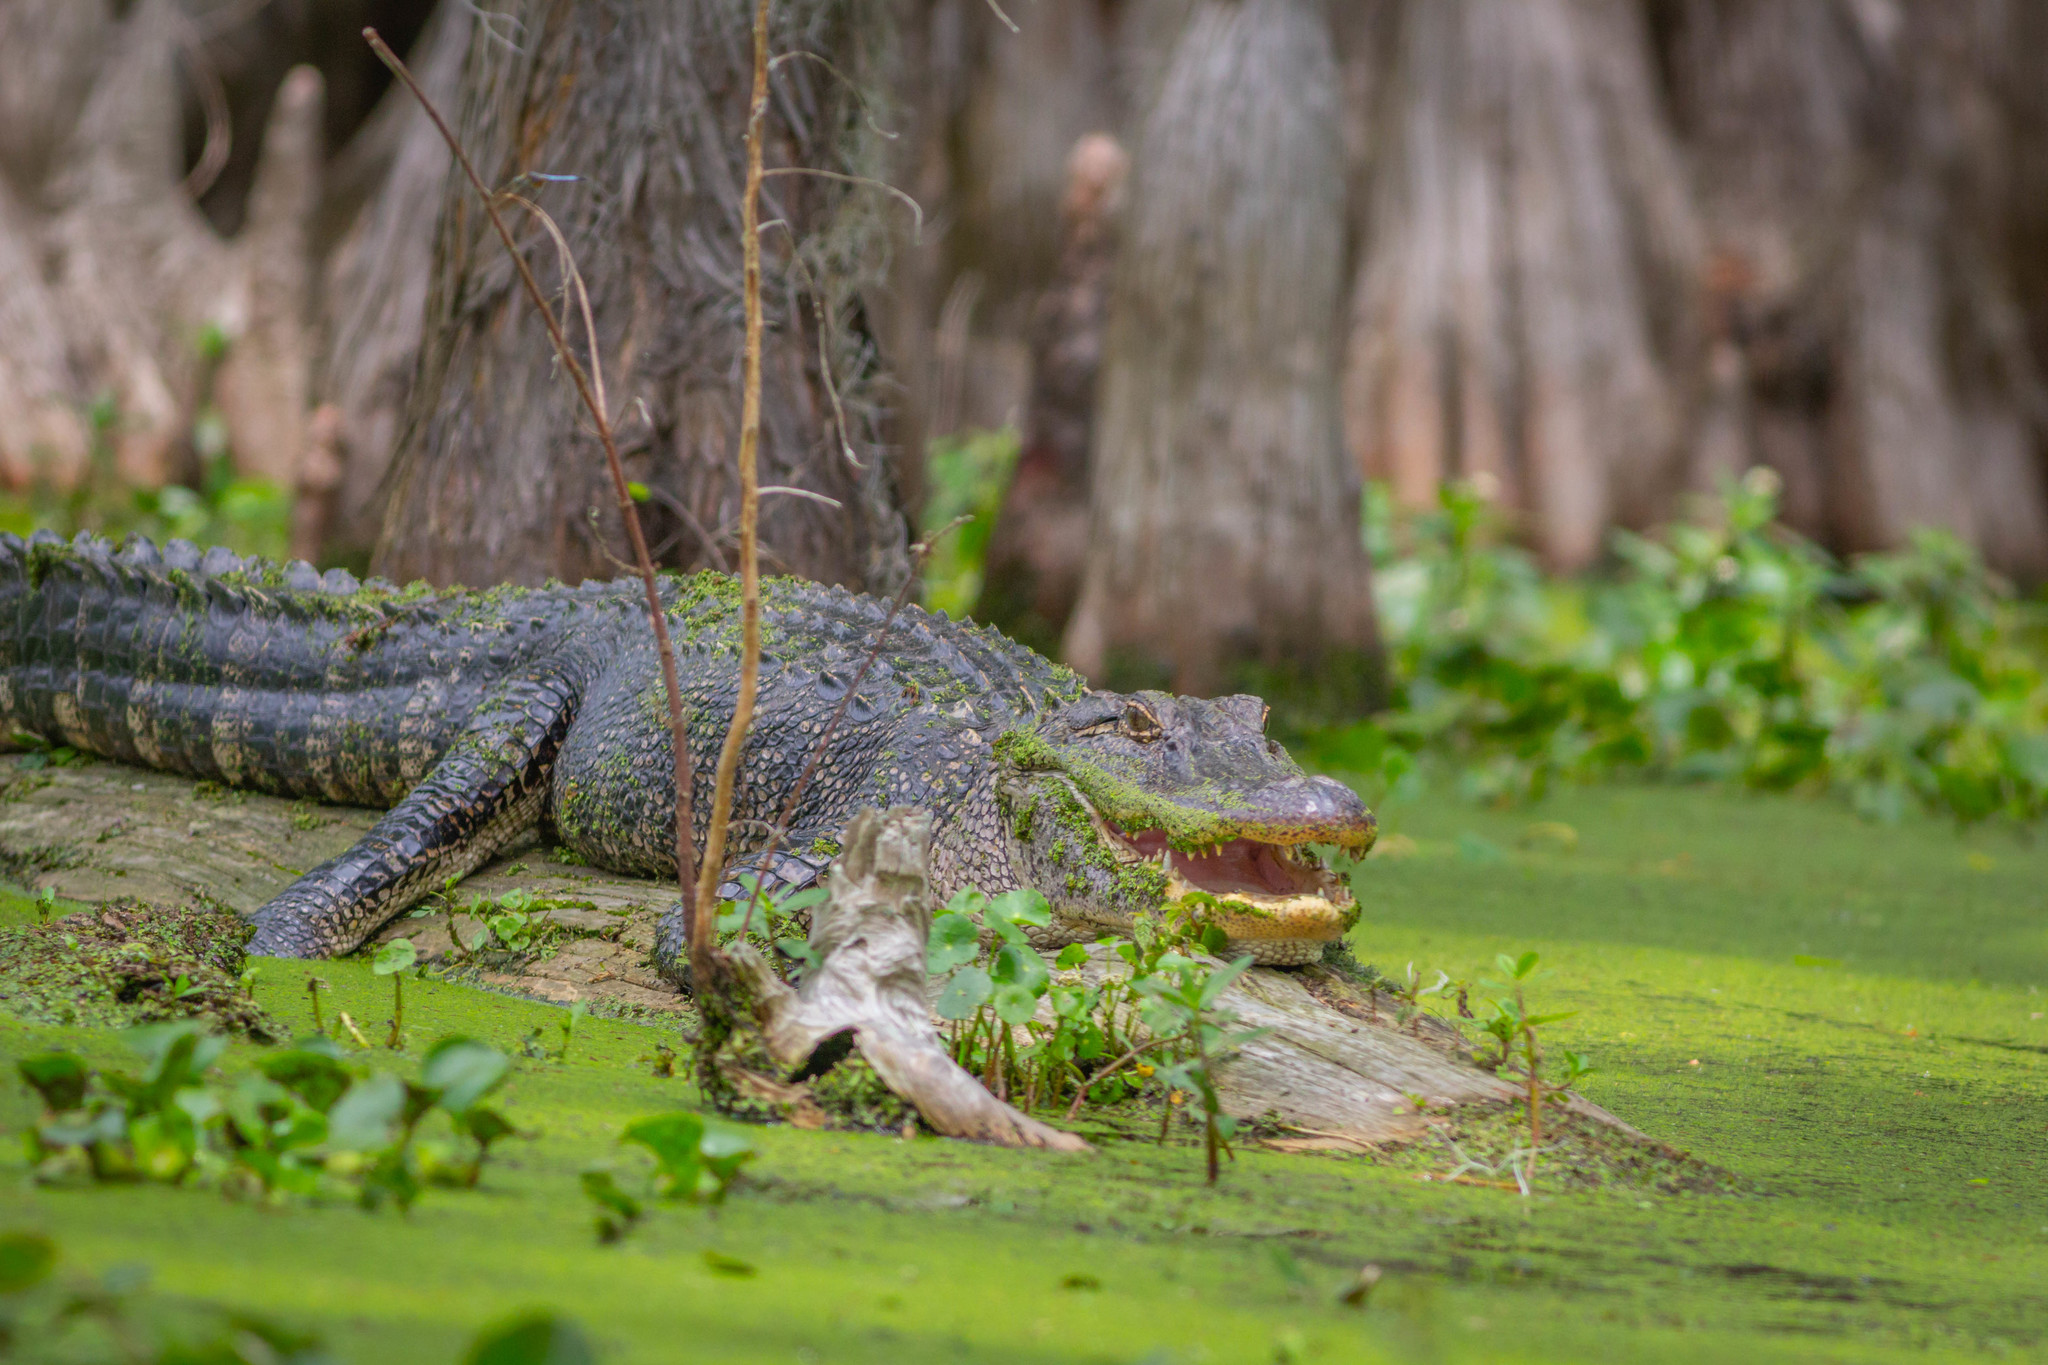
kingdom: Animalia
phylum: Chordata
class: Crocodylia
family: Alligatoridae
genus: Alligator
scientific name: Alligator mississippiensis
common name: American alligator
